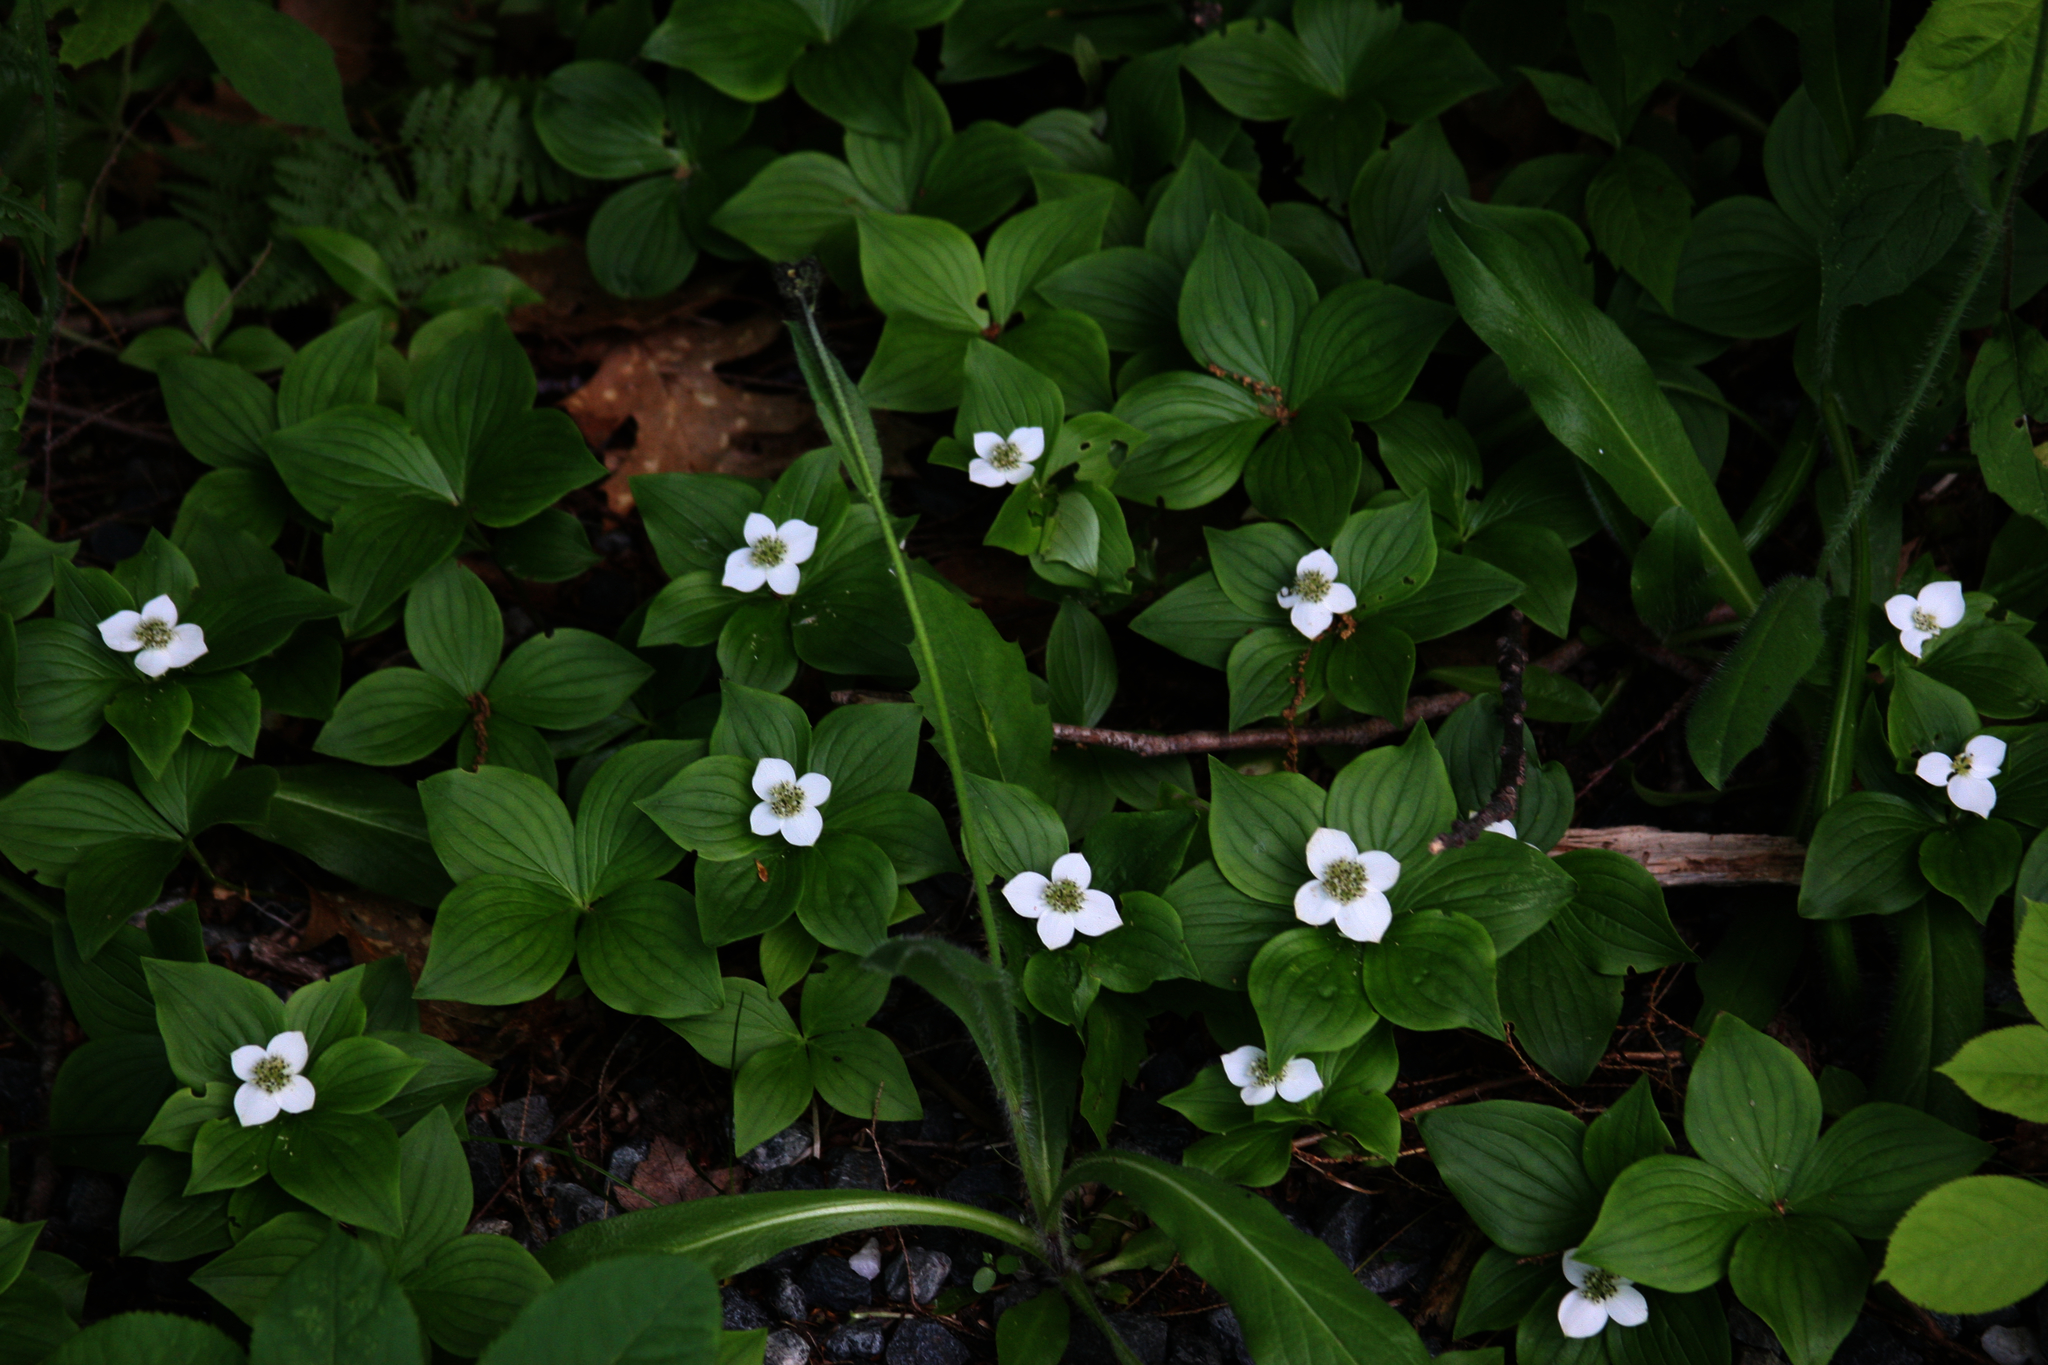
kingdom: Plantae
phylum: Tracheophyta
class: Magnoliopsida
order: Cornales
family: Cornaceae
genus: Cornus
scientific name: Cornus canadensis
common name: Creeping dogwood
